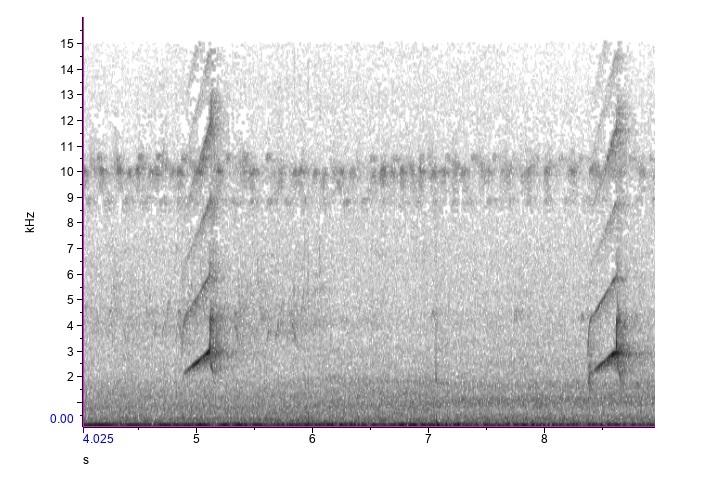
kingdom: Animalia
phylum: Chordata
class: Aves
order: Passeriformes
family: Tyrannidae
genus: Myiarchus
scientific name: Myiarchus crinitus
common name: Great crested flycatcher
